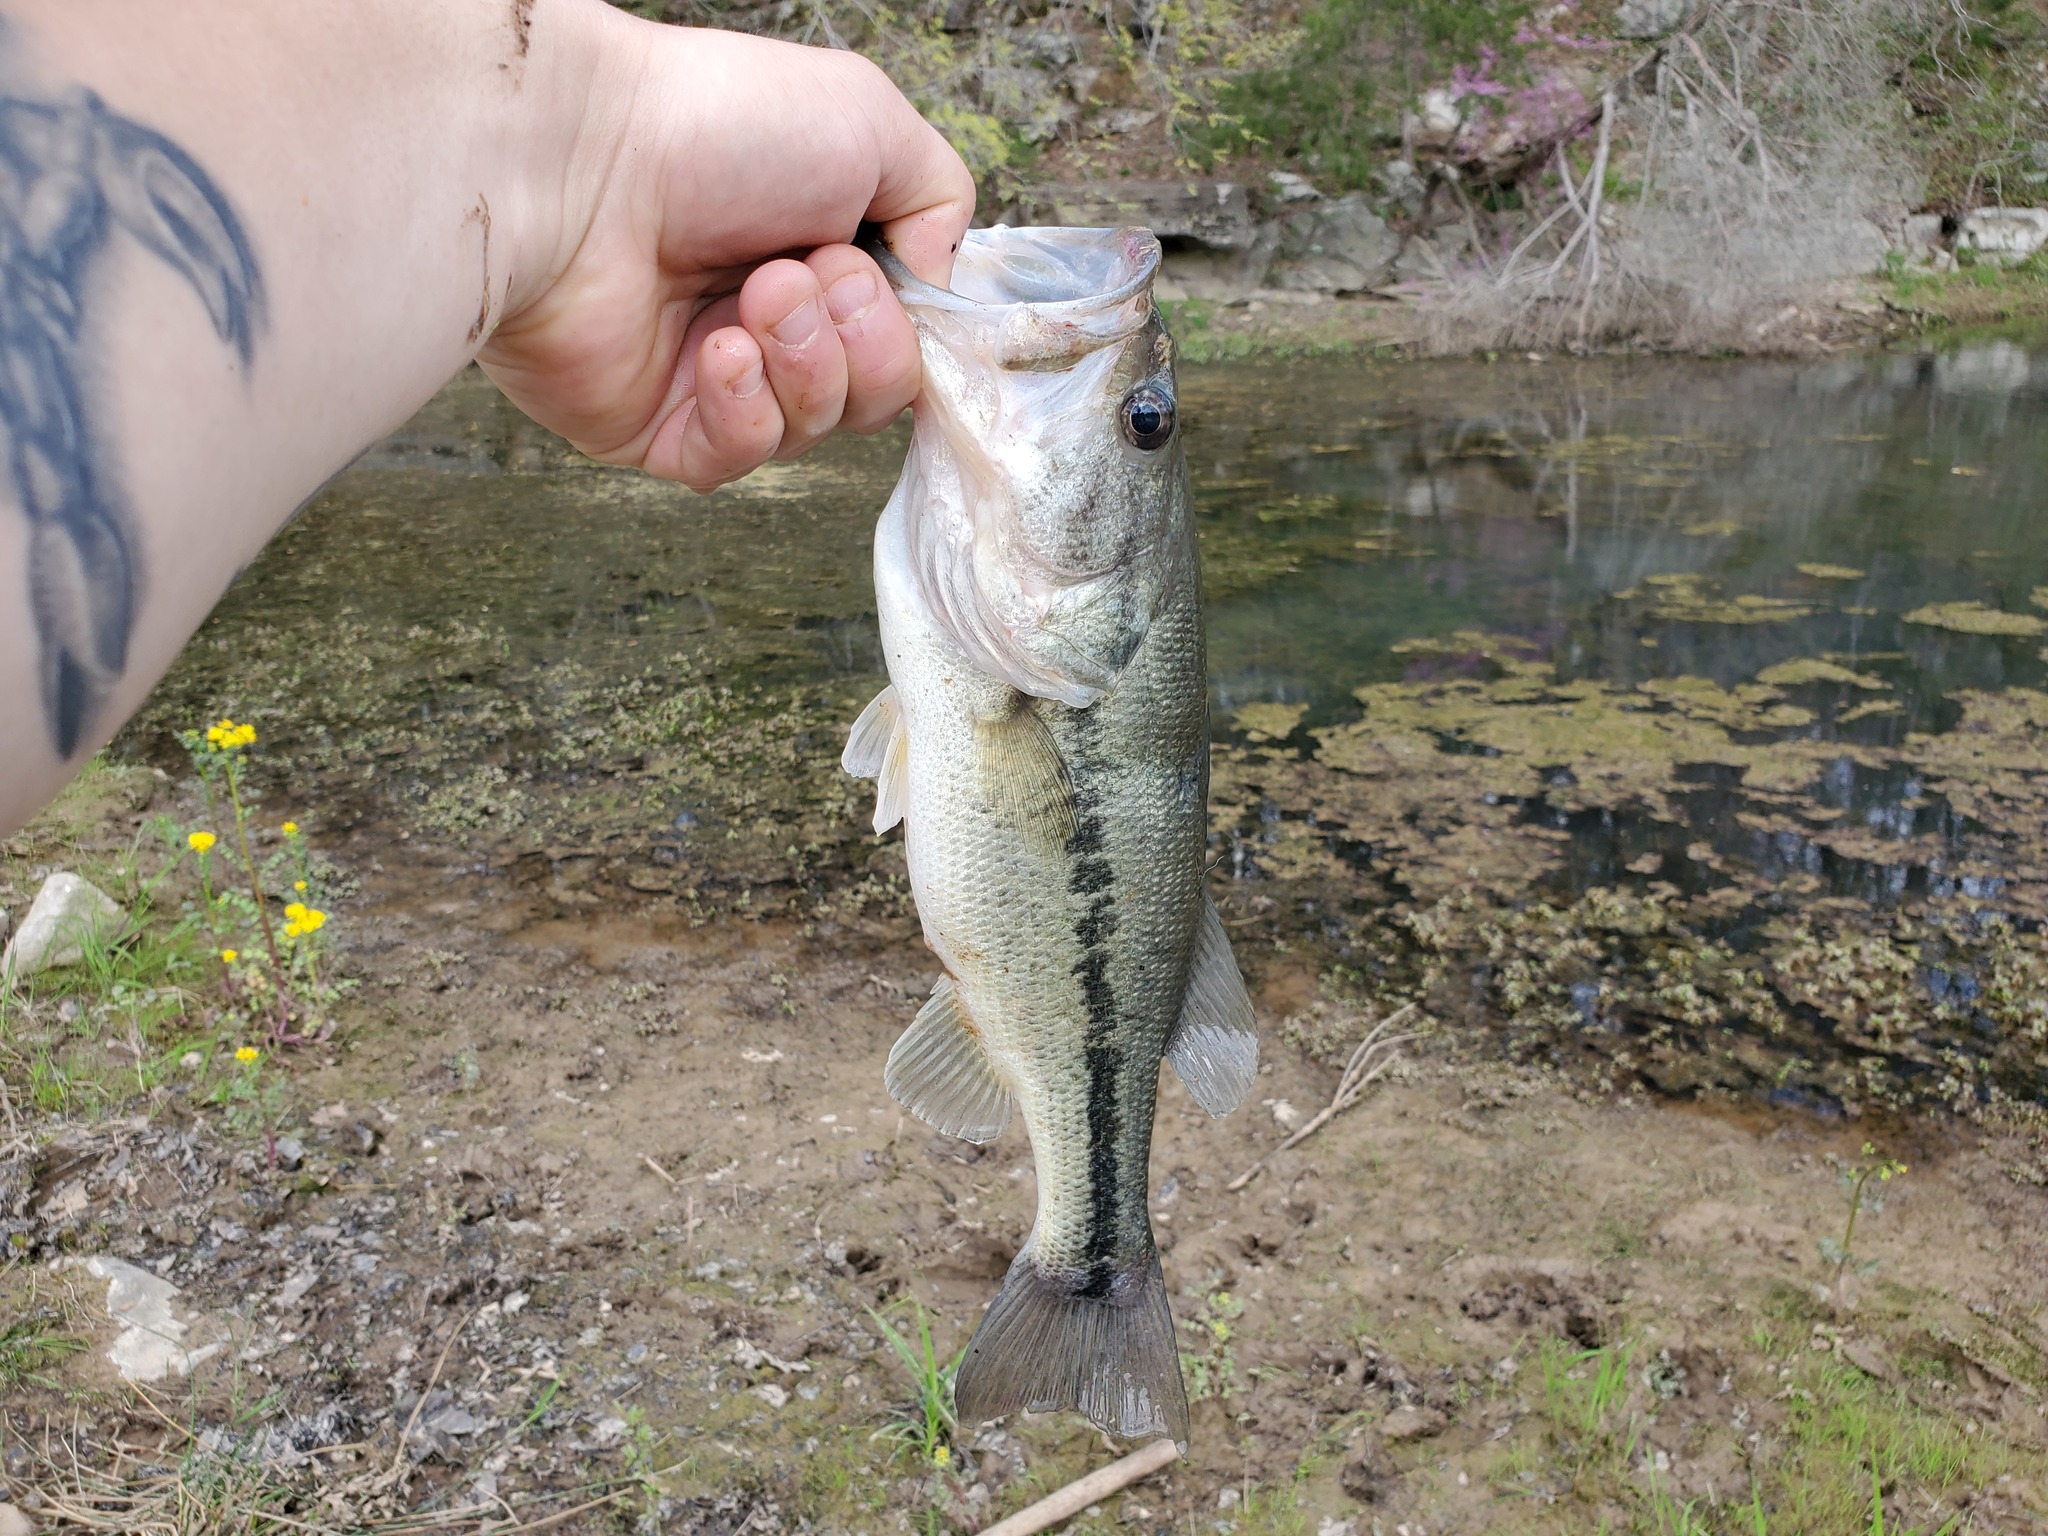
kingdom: Animalia
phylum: Chordata
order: Perciformes
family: Centrarchidae
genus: Micropterus
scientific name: Micropterus
